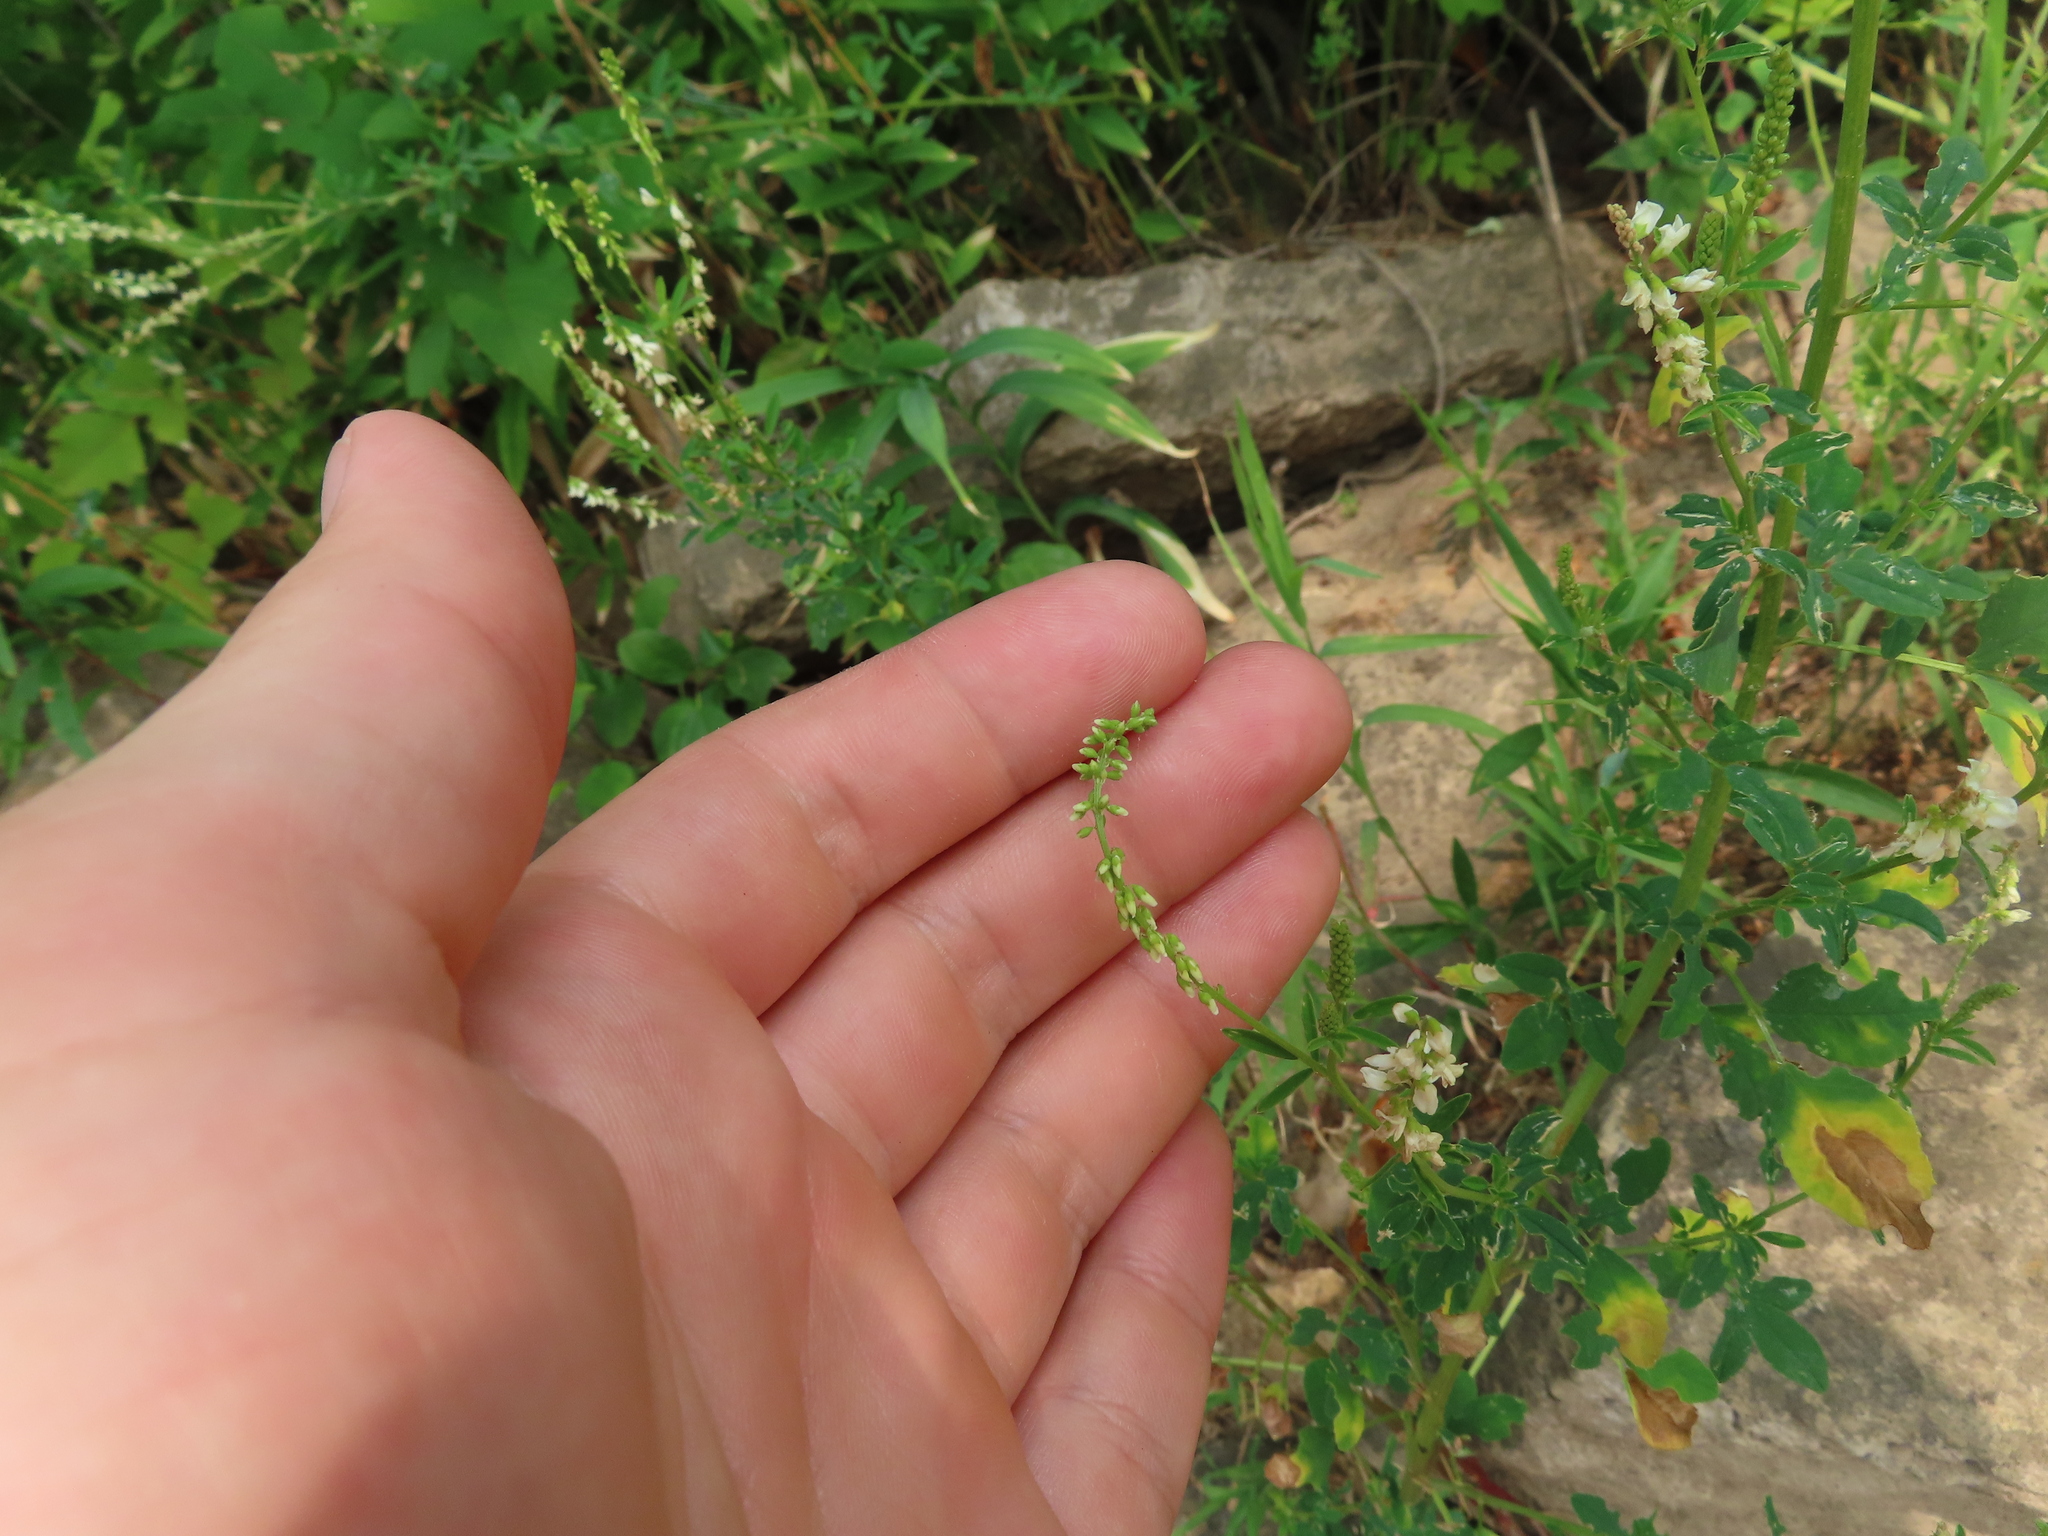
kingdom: Plantae
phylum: Tracheophyta
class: Magnoliopsida
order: Fabales
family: Fabaceae
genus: Melilotus
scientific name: Melilotus albus
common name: White melilot
